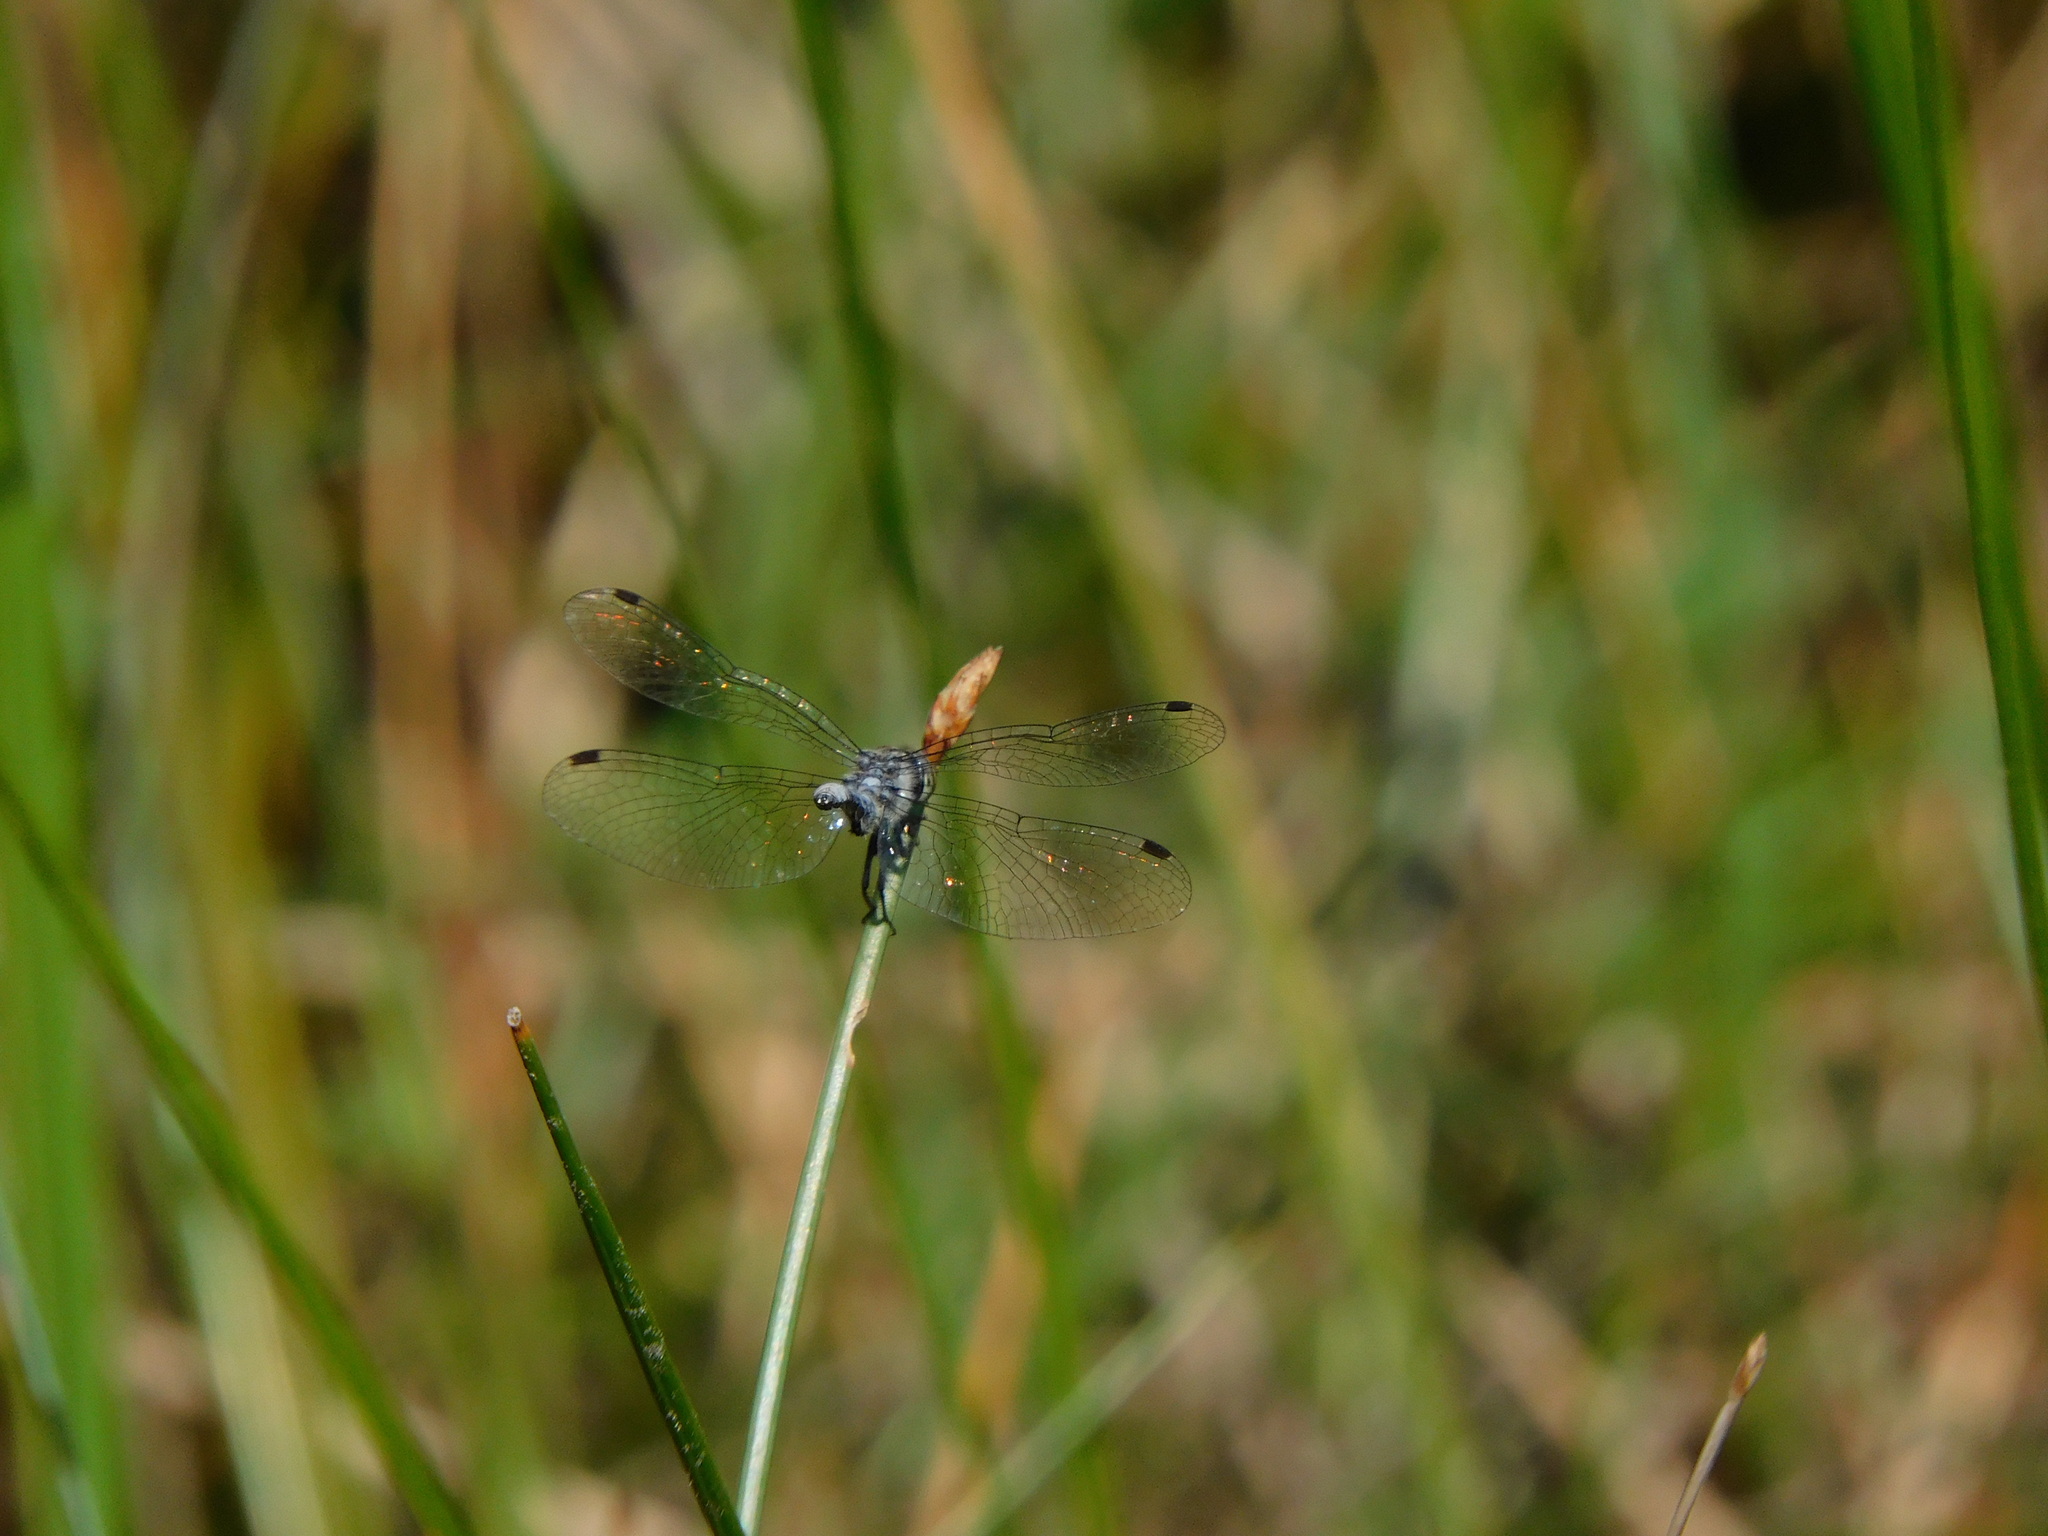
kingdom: Animalia
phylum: Arthropoda
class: Insecta
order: Odonata
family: Libellulidae
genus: Nannothemis
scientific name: Nannothemis bella
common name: Elfin skimmer
